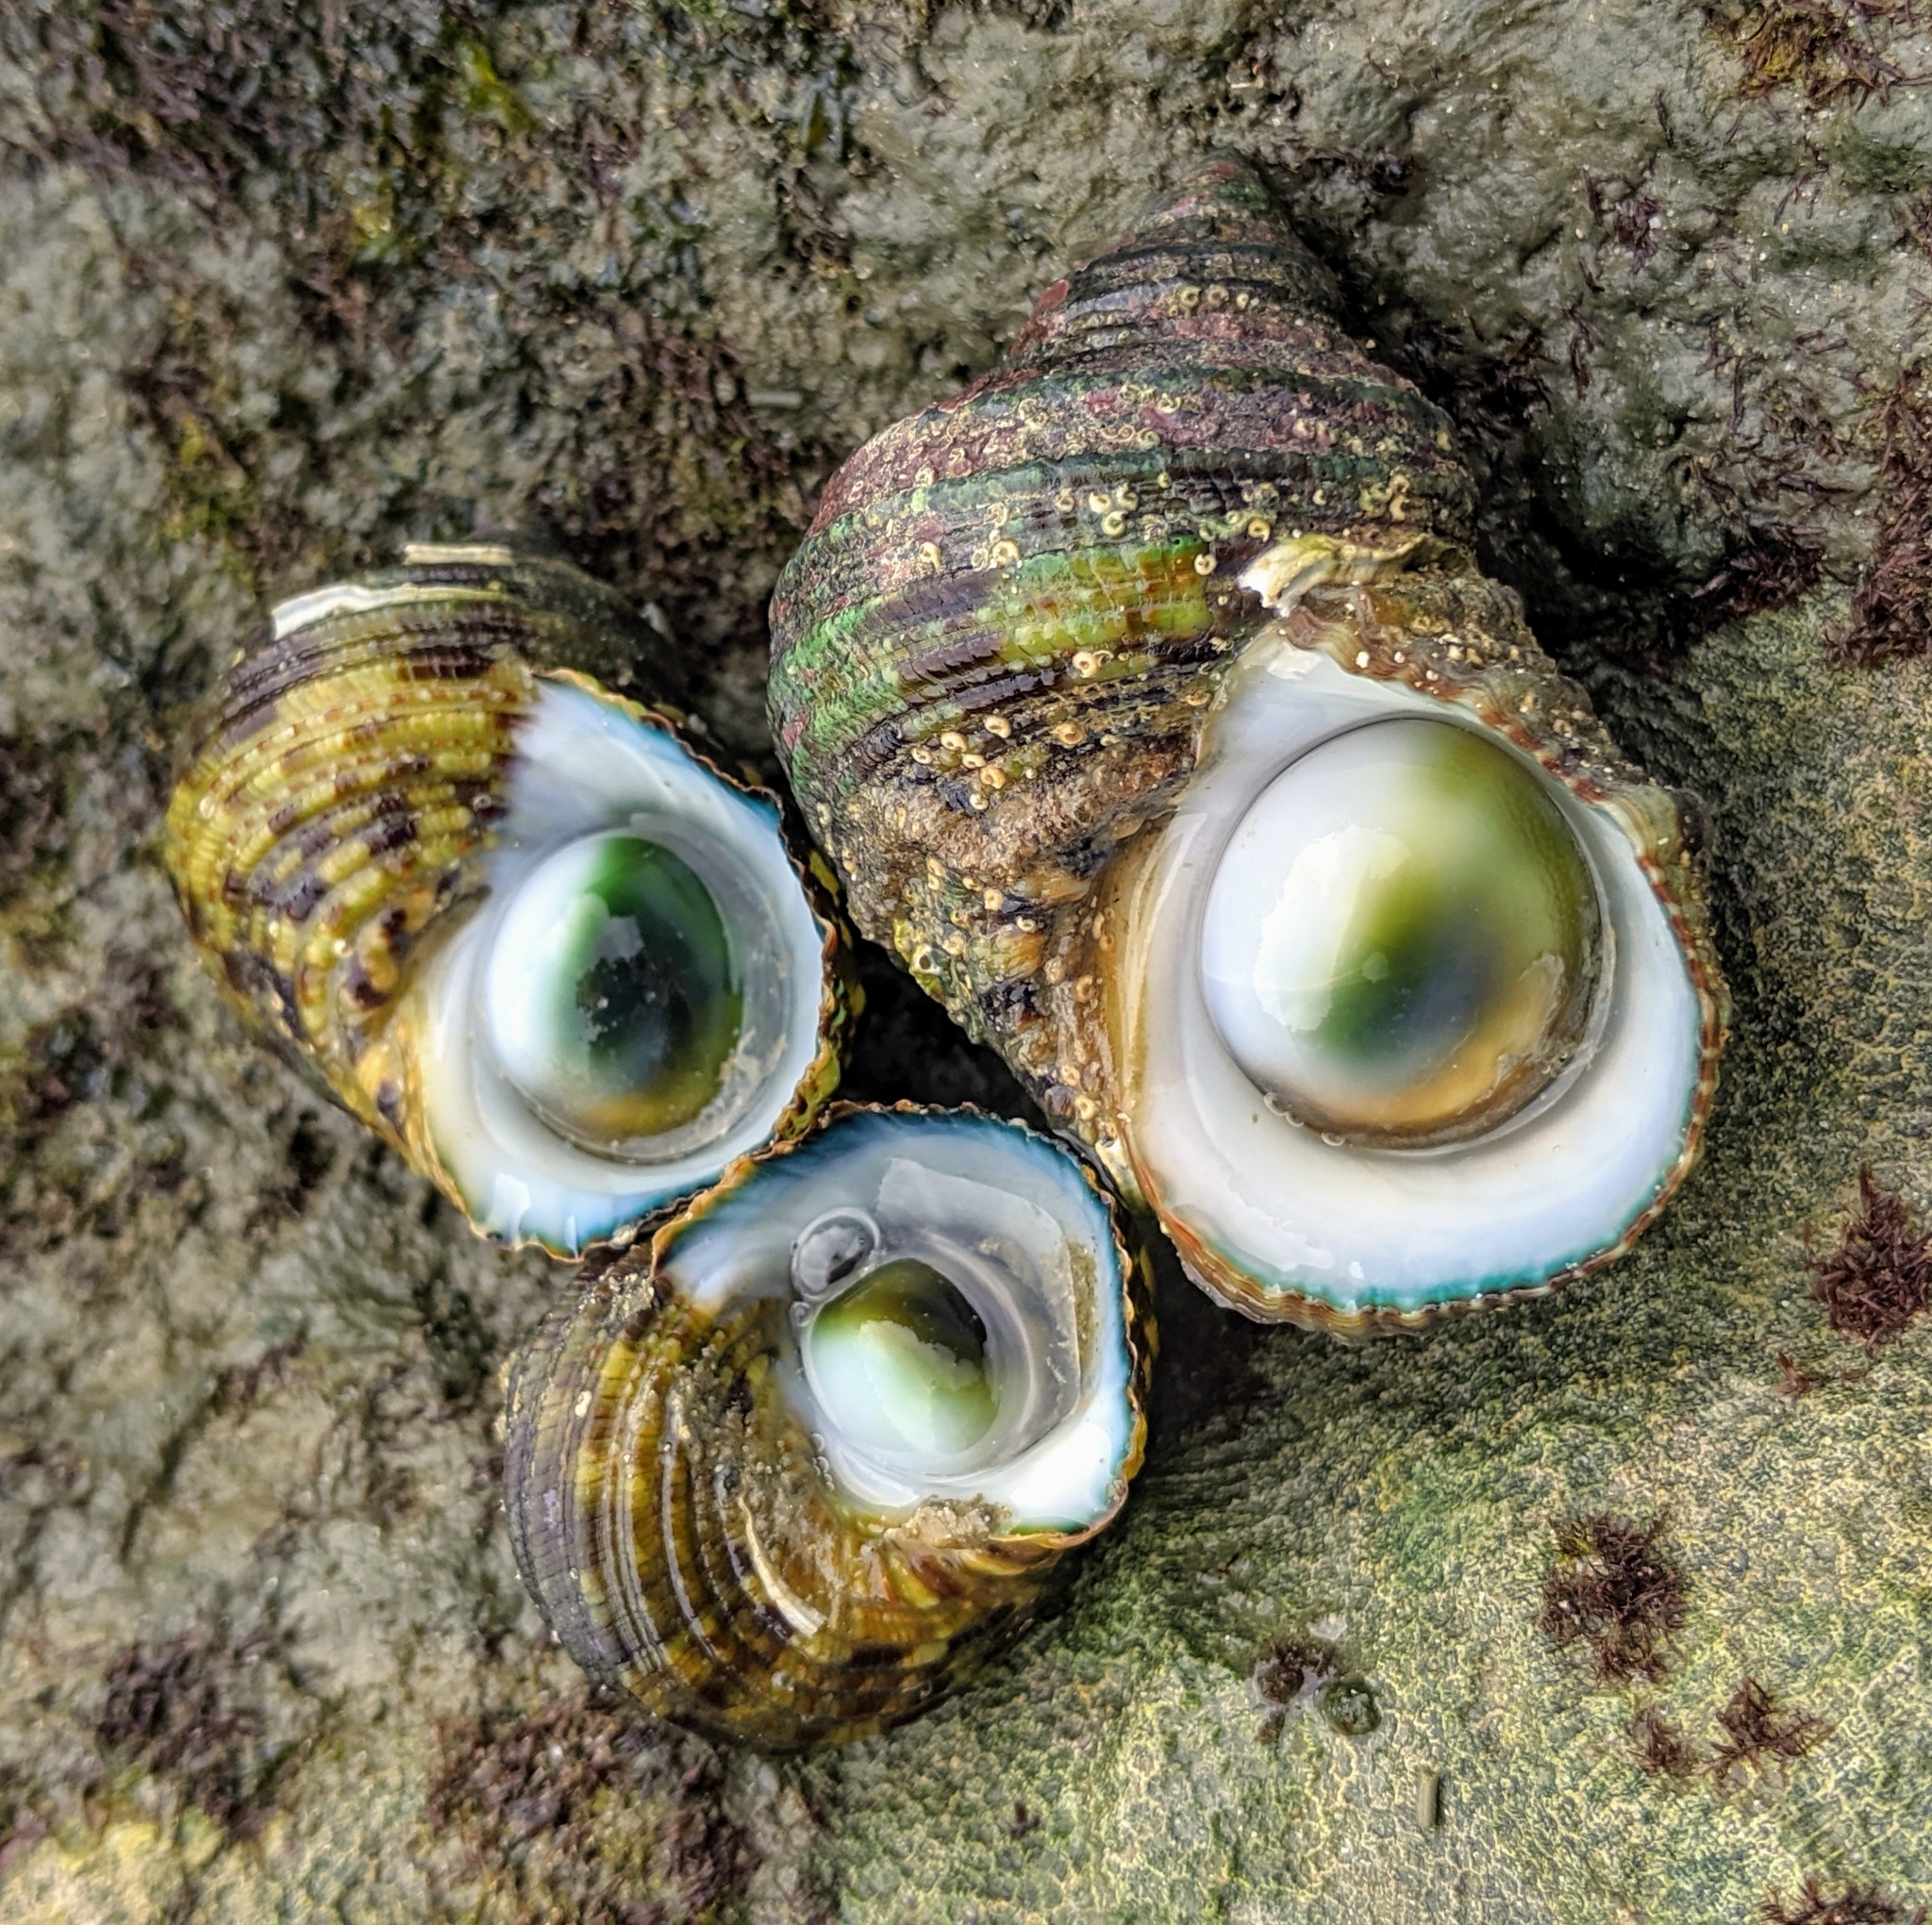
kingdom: Animalia
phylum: Mollusca
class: Gastropoda
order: Trochida
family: Turbinidae
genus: Turbo
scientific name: Turbo bruneus
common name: Brown pacific turban
